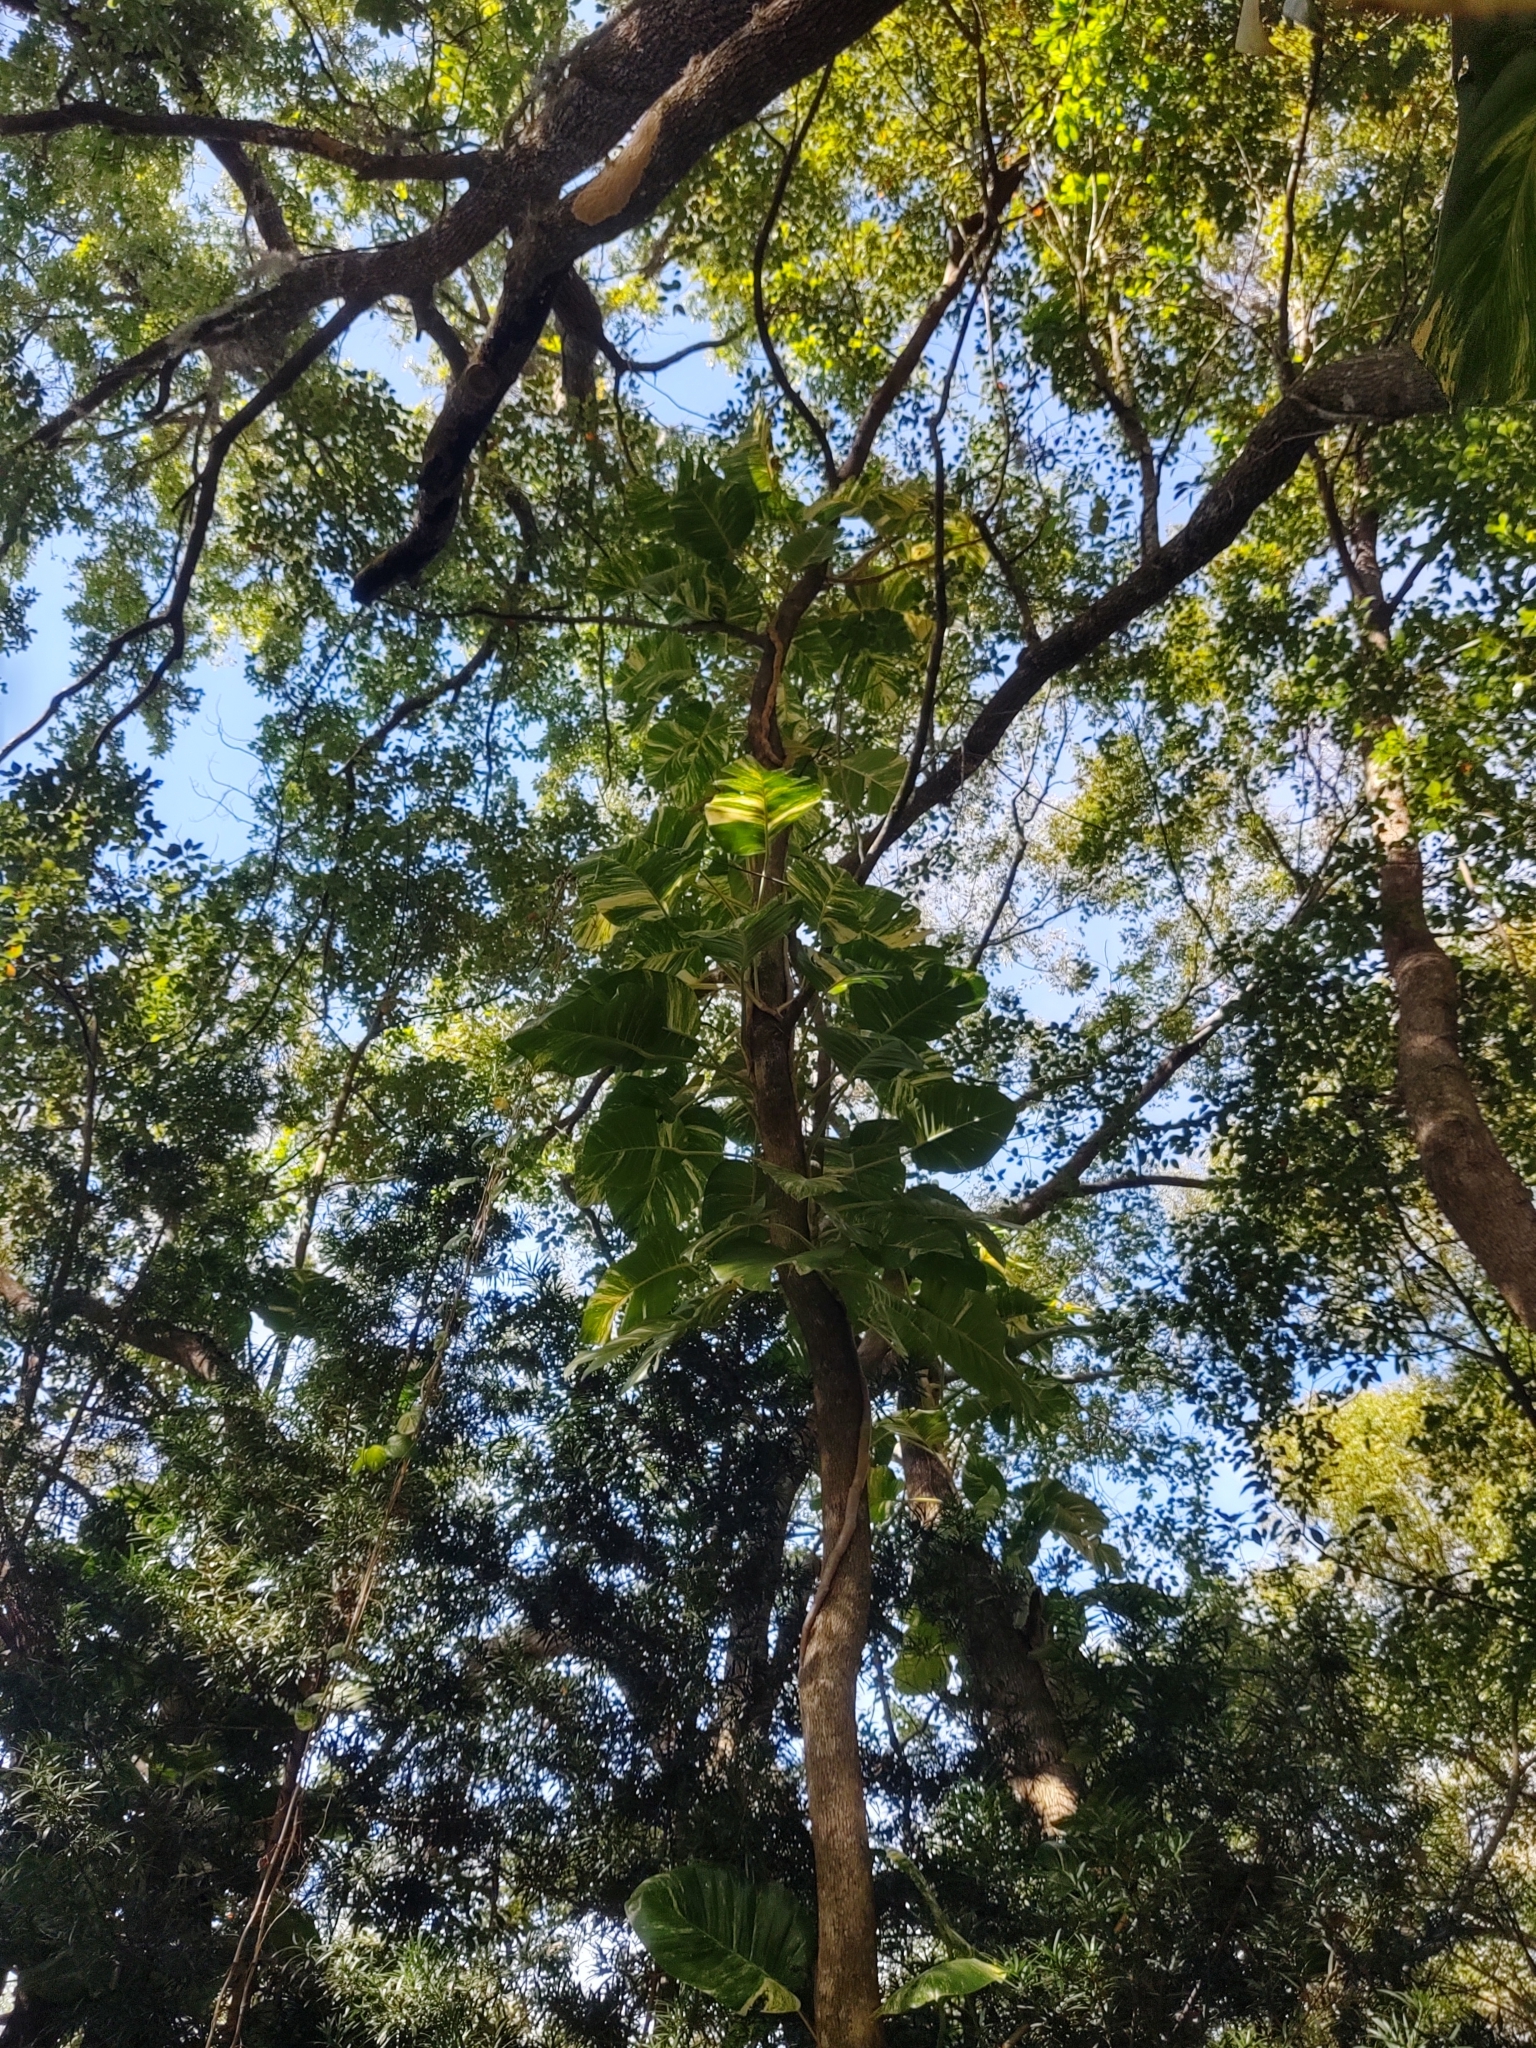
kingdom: Plantae
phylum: Tracheophyta
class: Liliopsida
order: Alismatales
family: Araceae
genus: Epipremnum
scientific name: Epipremnum aureum
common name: Golden hunter's-robe
